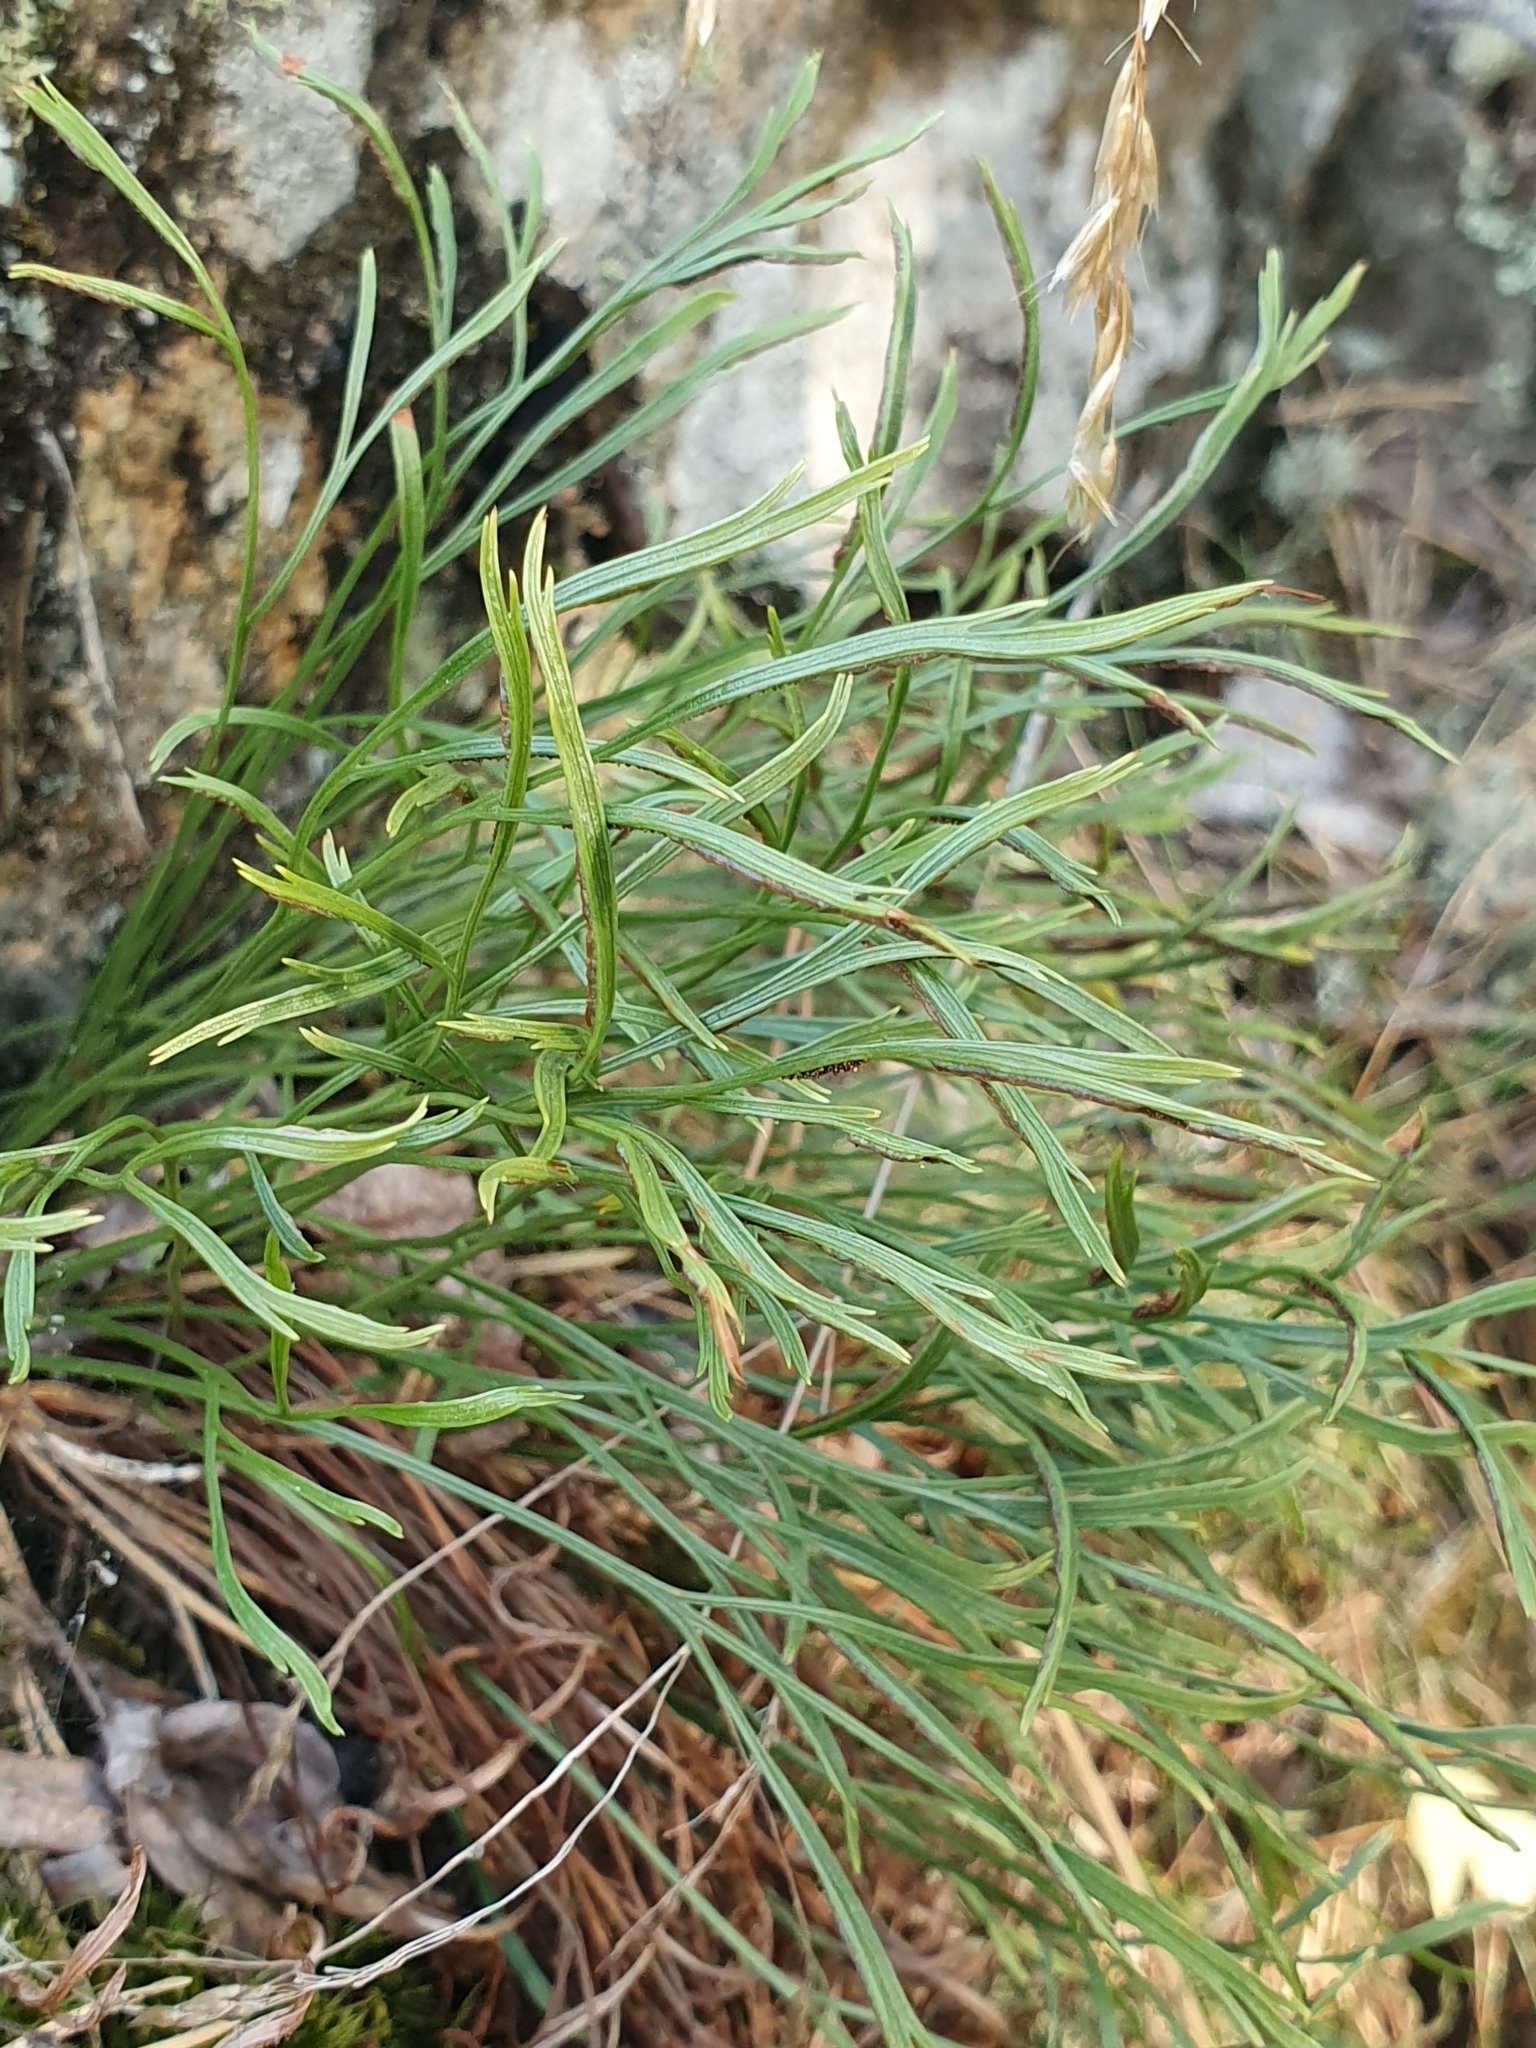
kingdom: Plantae
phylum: Tracheophyta
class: Polypodiopsida
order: Polypodiales
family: Aspleniaceae
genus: Asplenium
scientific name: Asplenium septentrionale
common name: Forked spleenwort
